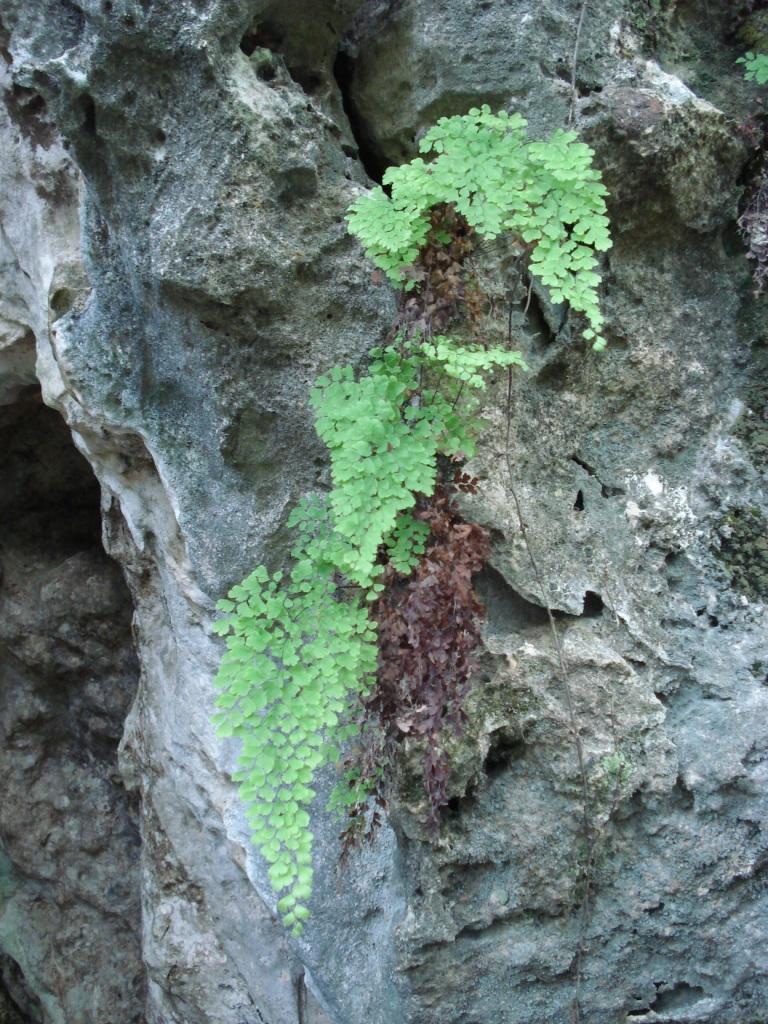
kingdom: Plantae
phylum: Tracheophyta
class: Polypodiopsida
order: Polypodiales
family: Pteridaceae
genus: Adiantum
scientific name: Adiantum bellum
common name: Bermuda maidenhair fern
